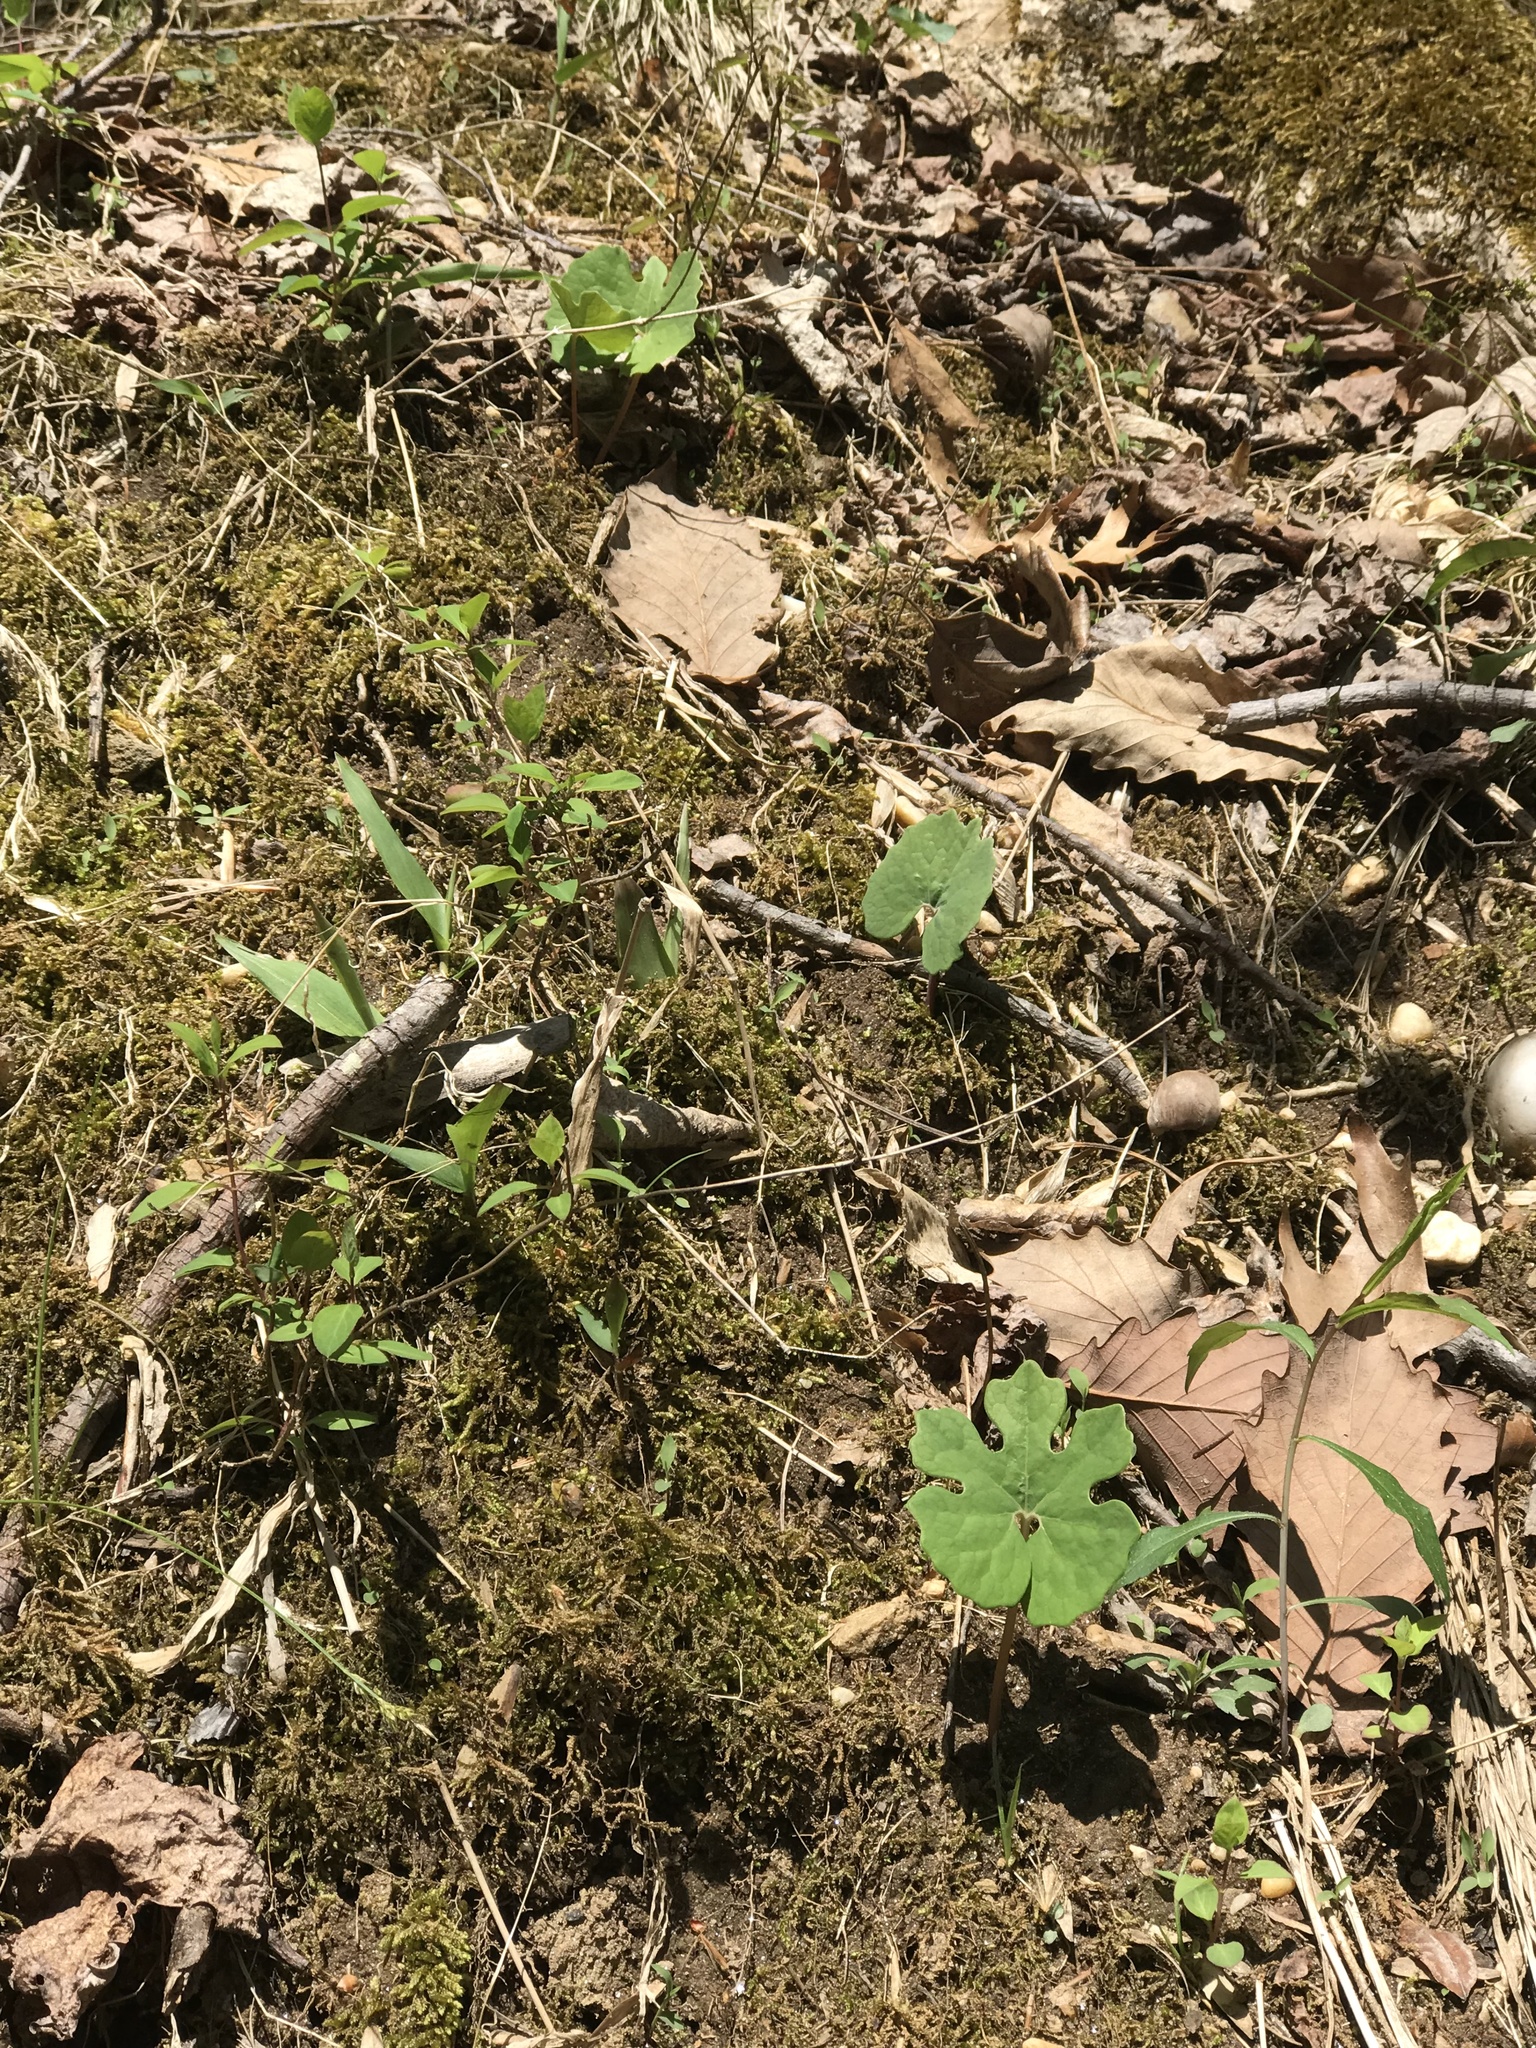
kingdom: Plantae
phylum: Tracheophyta
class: Magnoliopsida
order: Ranunculales
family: Papaveraceae
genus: Sanguinaria
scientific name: Sanguinaria canadensis
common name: Bloodroot
